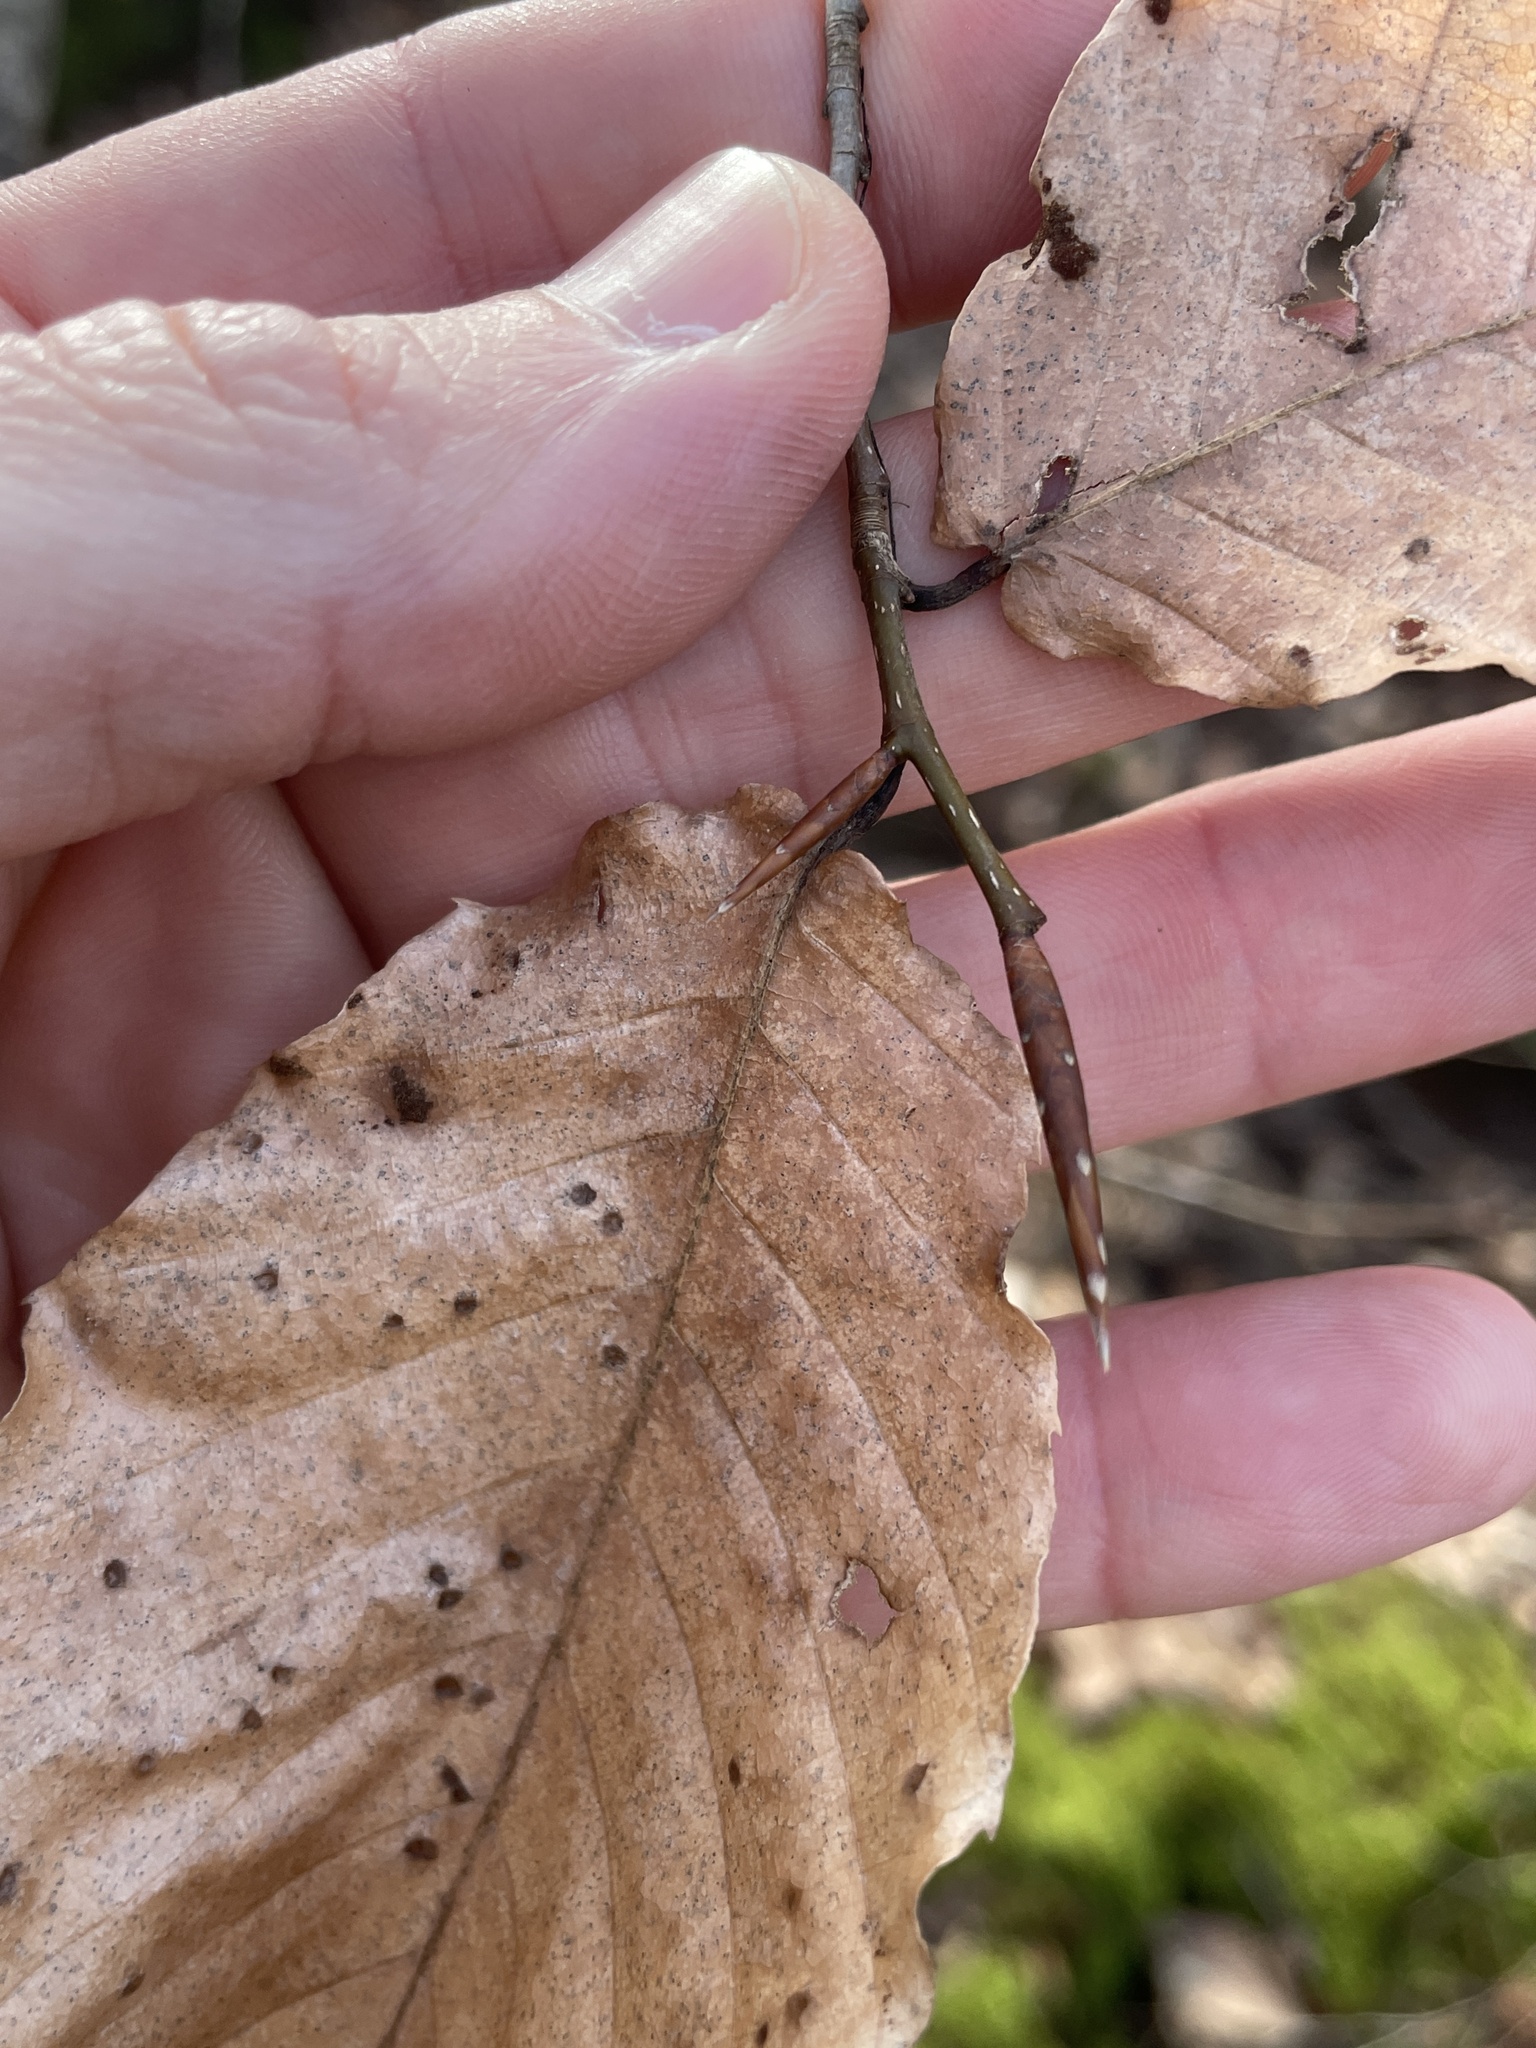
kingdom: Plantae
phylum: Tracheophyta
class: Magnoliopsida
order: Fagales
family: Fagaceae
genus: Fagus
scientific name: Fagus grandifolia
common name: American beech
